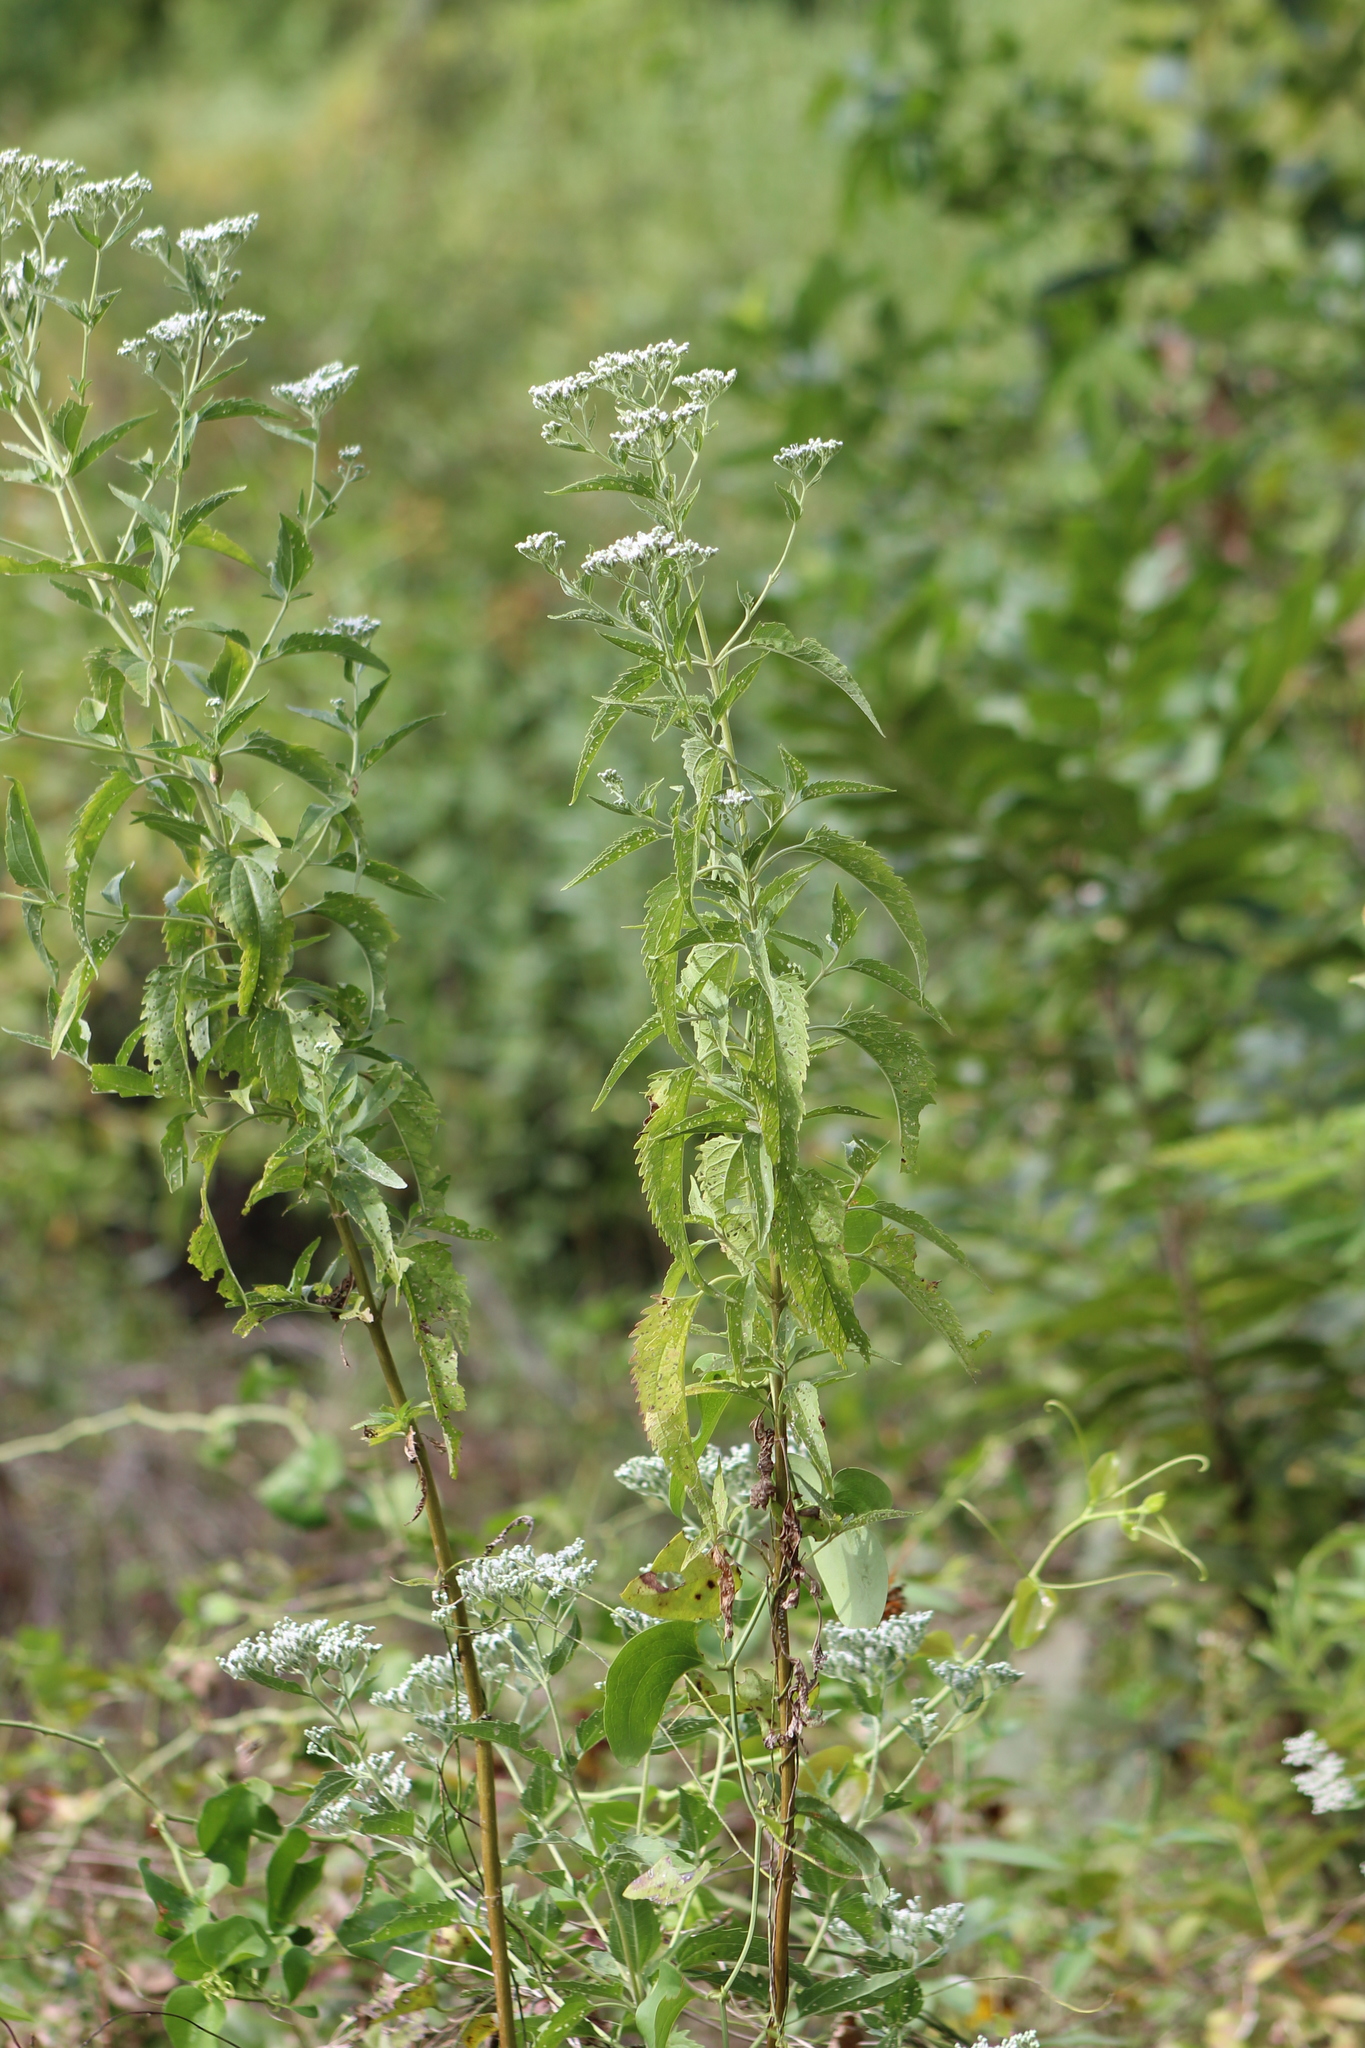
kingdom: Plantae
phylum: Tracheophyta
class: Magnoliopsida
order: Asterales
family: Asteraceae
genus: Eupatorium
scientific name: Eupatorium serotinum
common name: Late boneset
